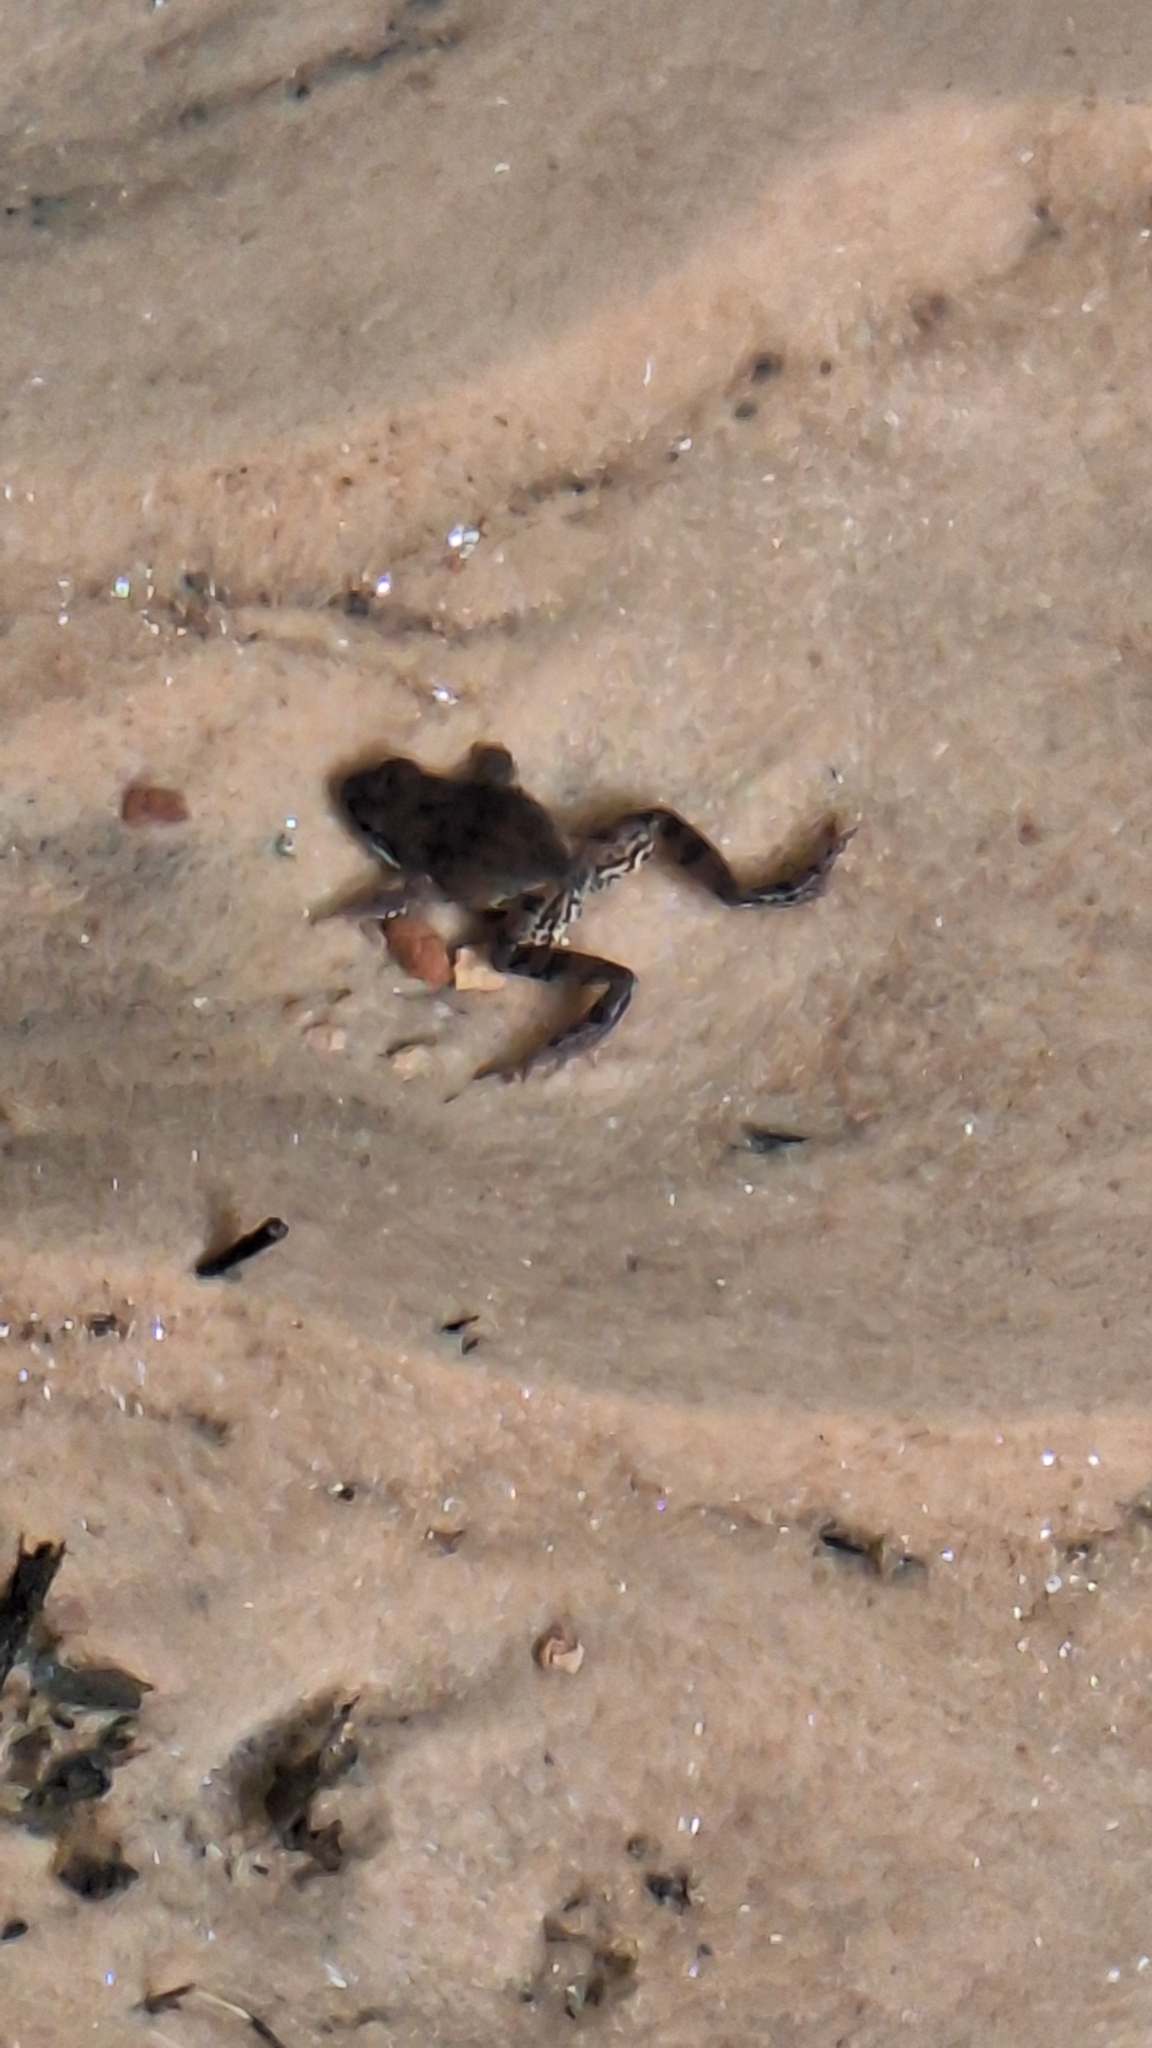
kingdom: Animalia
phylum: Chordata
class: Amphibia
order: Anura
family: Ranidae
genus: Rana
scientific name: Rana temporaria
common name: Common frog
